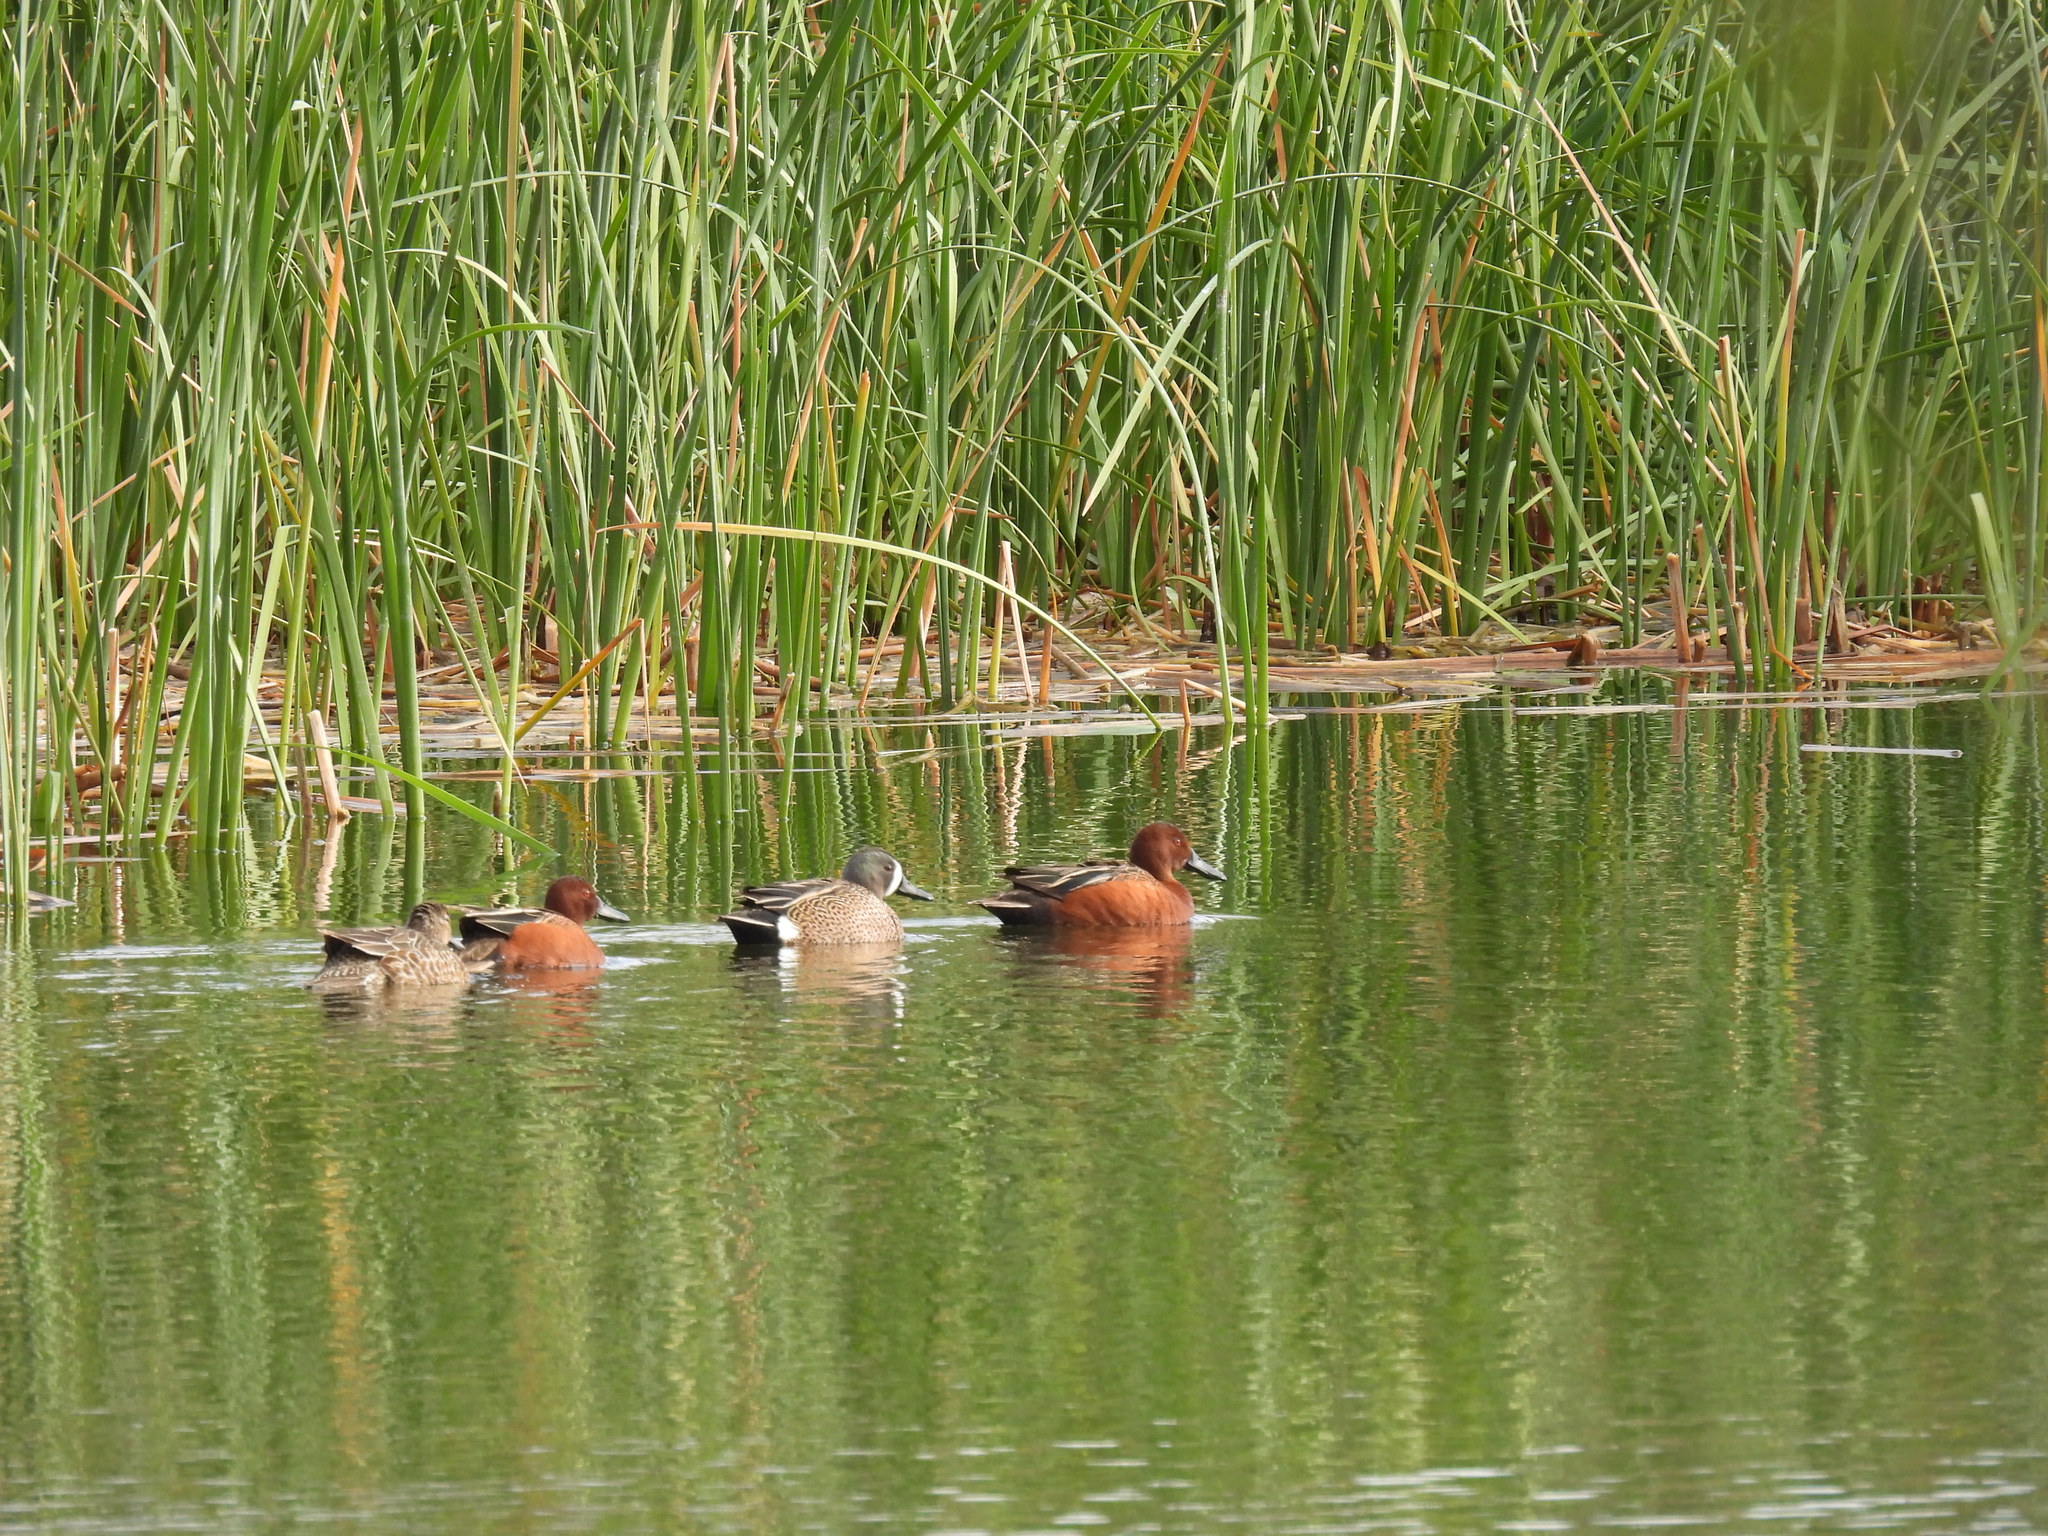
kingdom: Animalia
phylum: Chordata
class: Aves
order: Anseriformes
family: Anatidae
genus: Spatula
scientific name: Spatula cyanoptera
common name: Cinnamon teal
